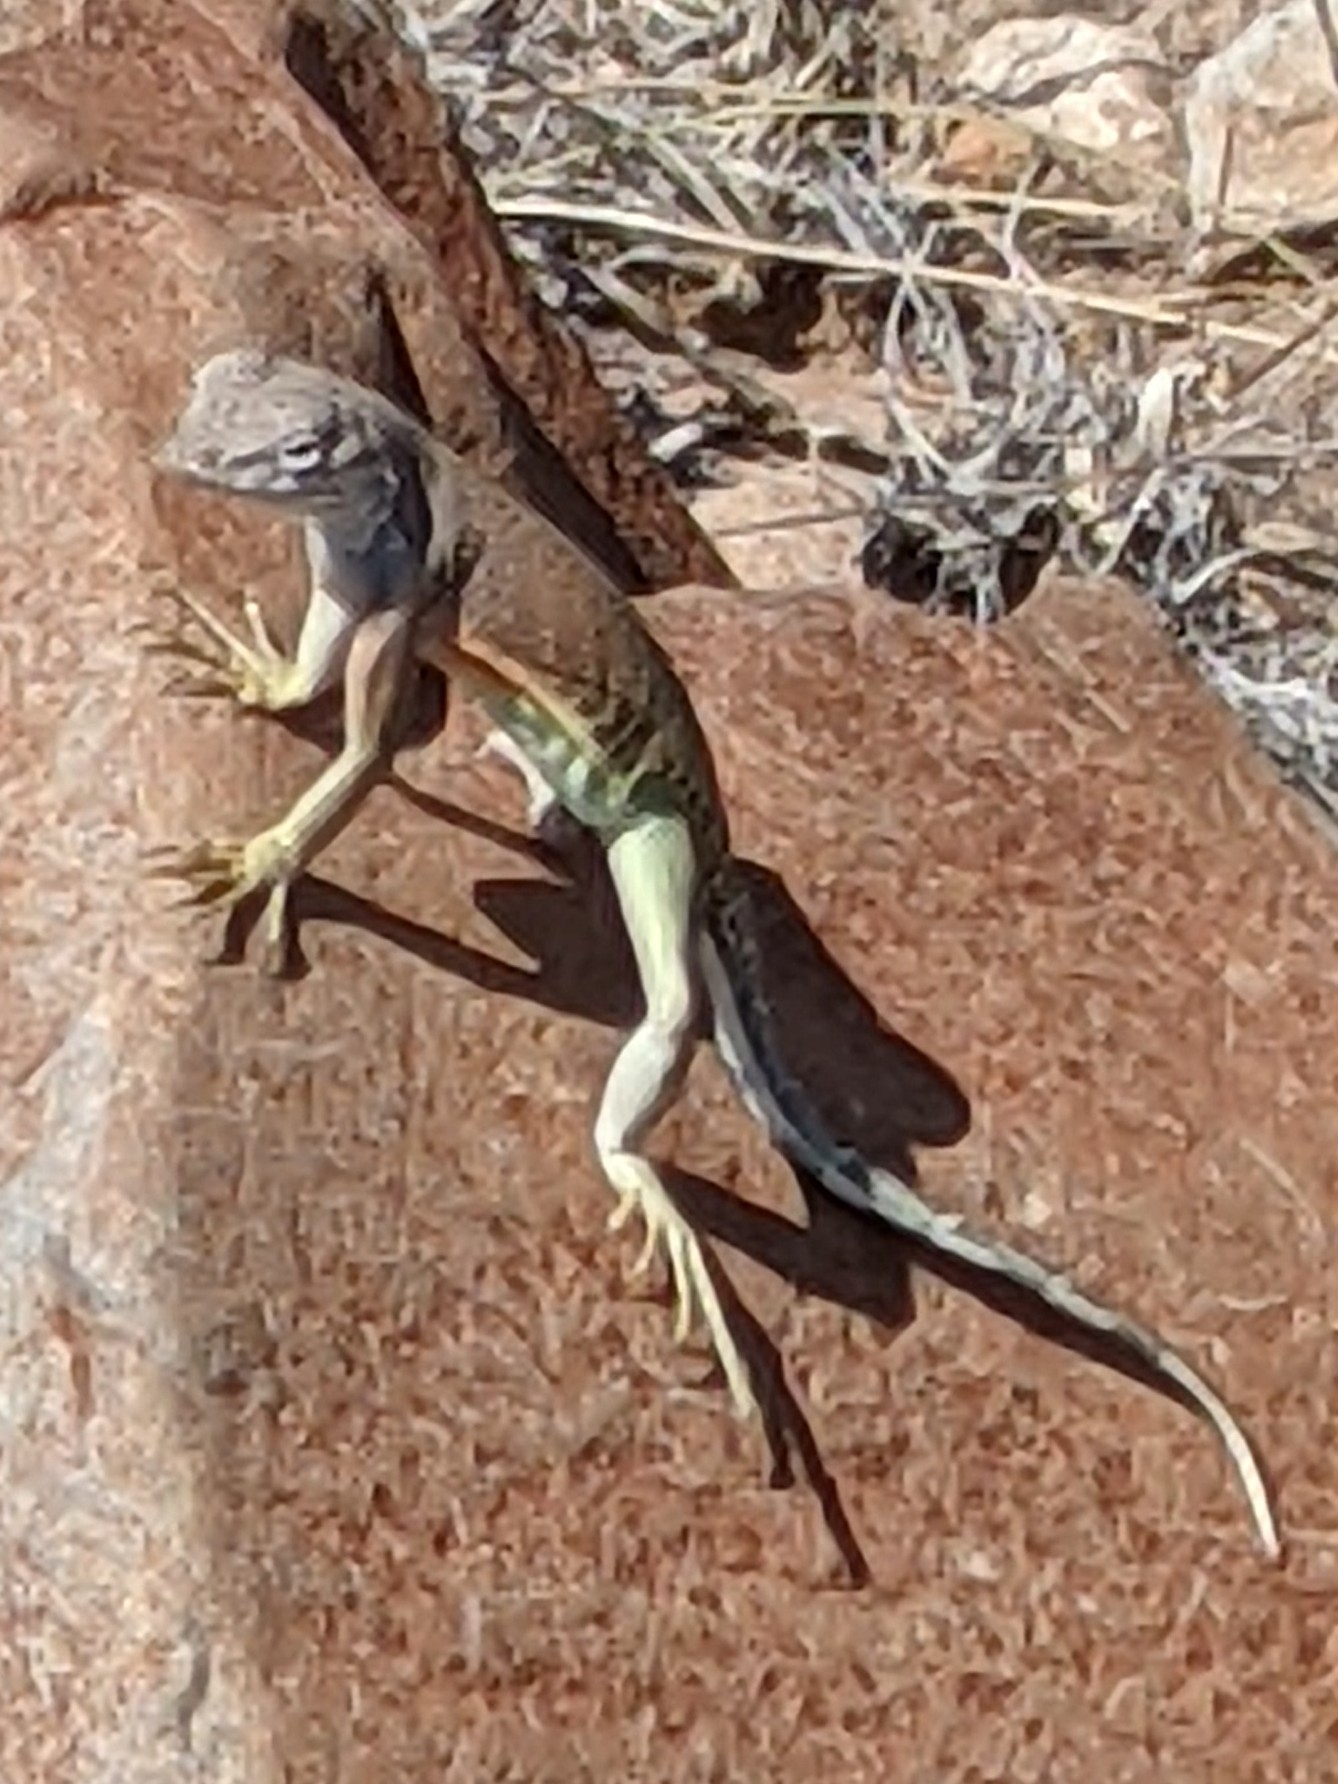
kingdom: Animalia
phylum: Chordata
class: Squamata
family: Phrynosomatidae
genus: Cophosaurus
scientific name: Cophosaurus texanus
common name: Greater earless lizard
